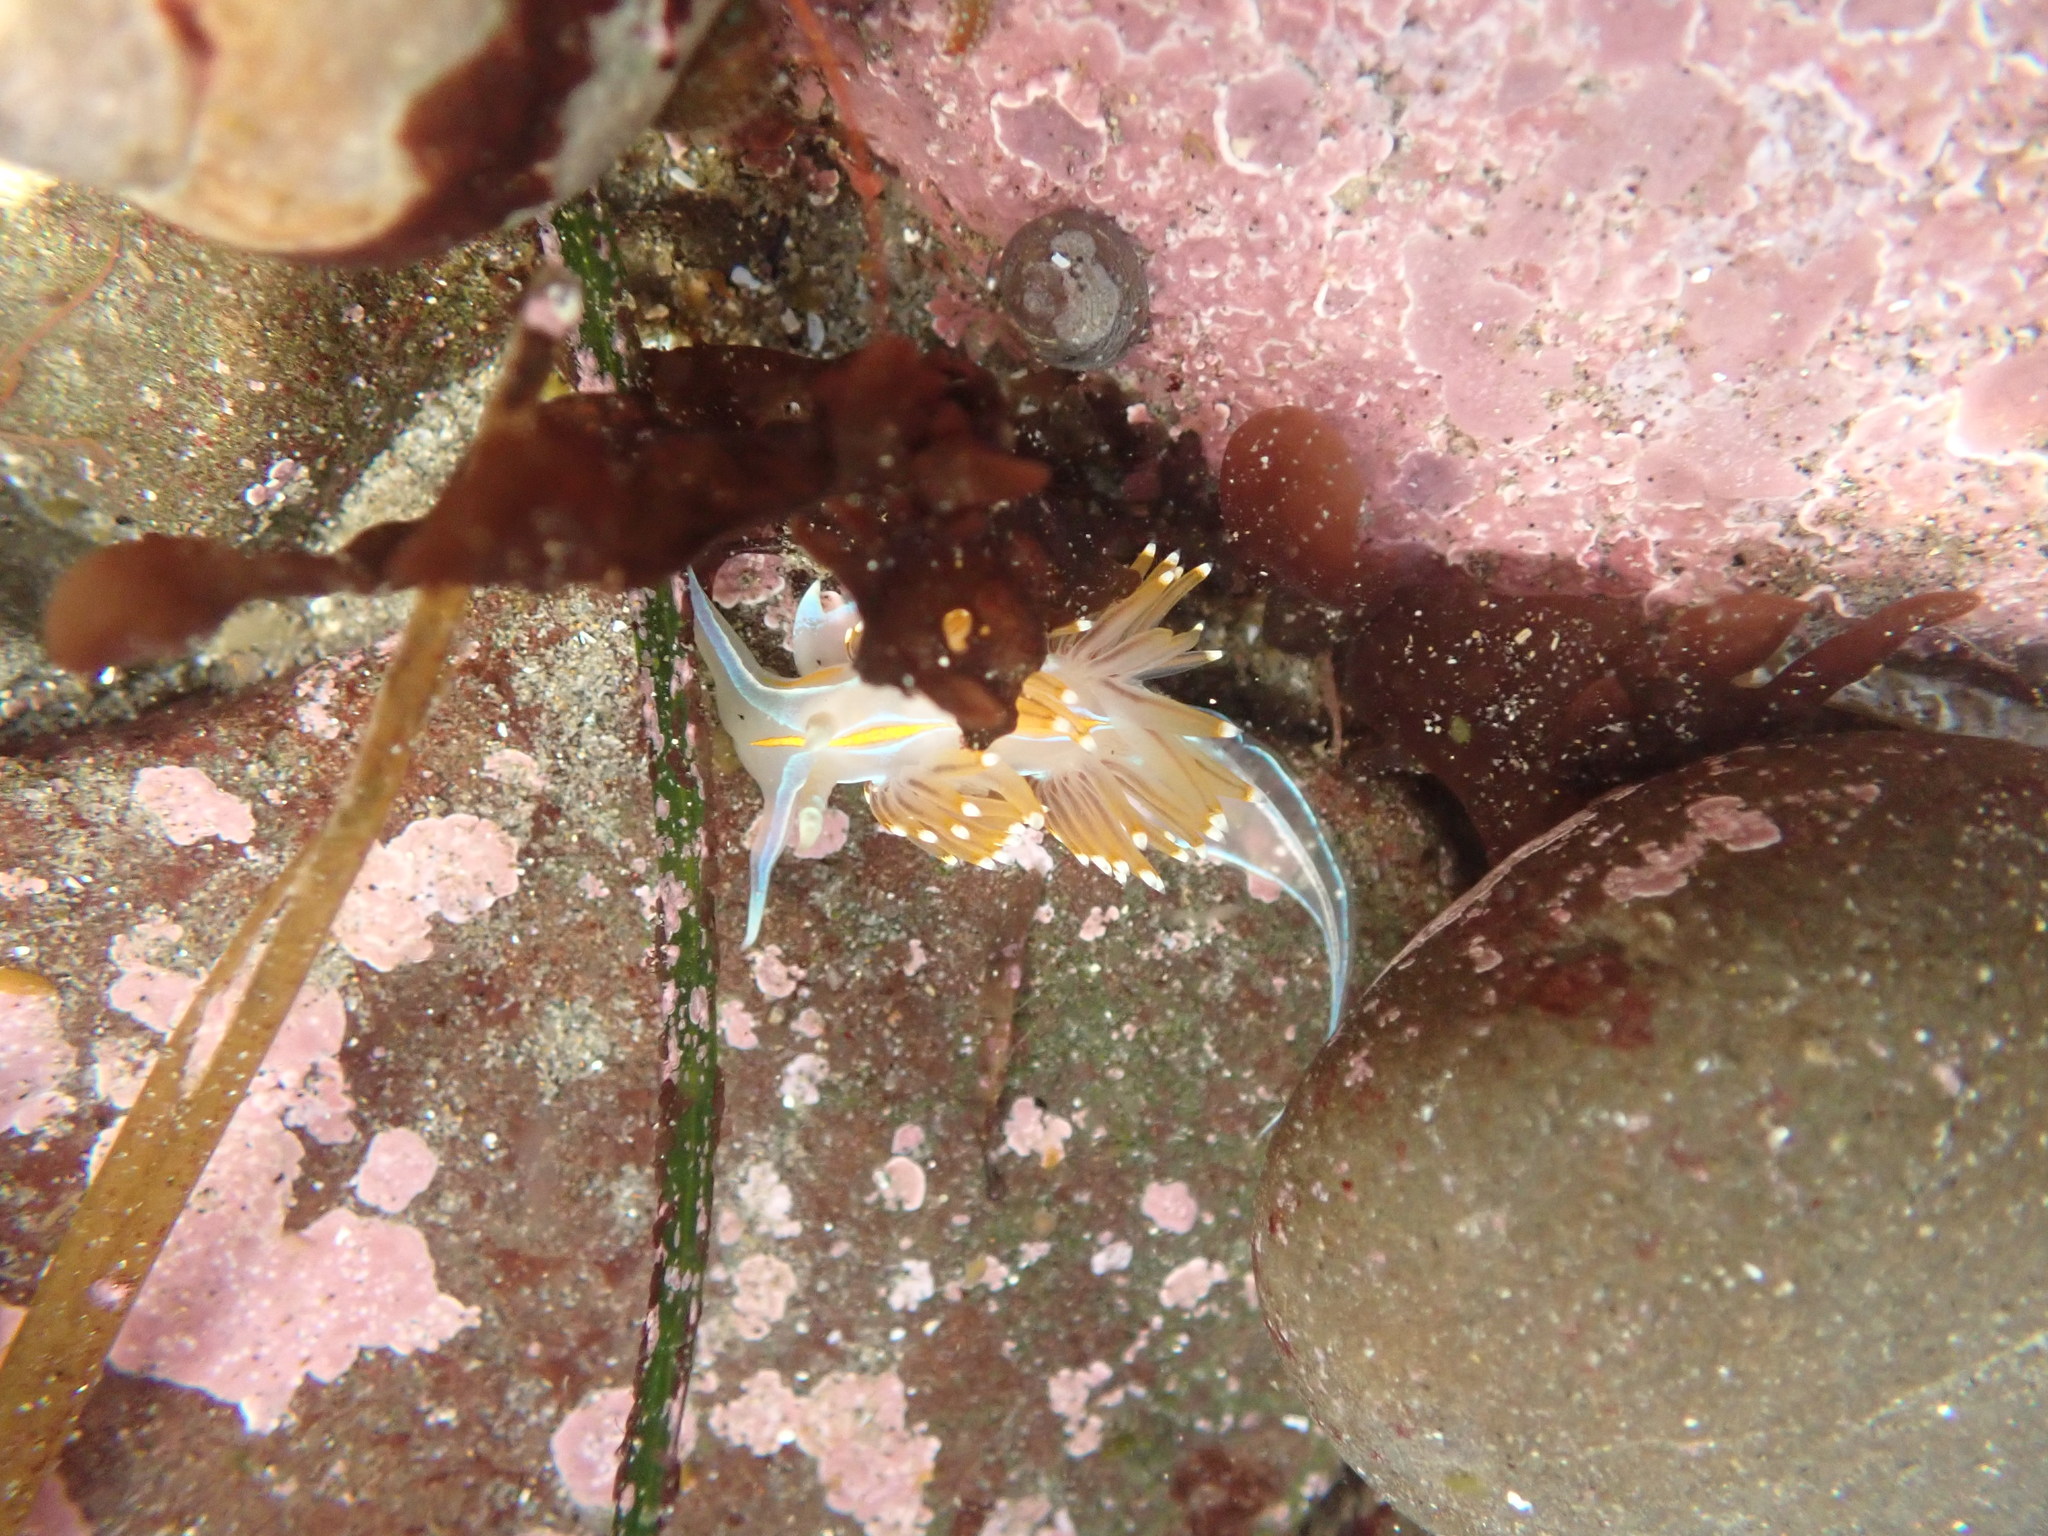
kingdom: Animalia
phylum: Mollusca
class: Gastropoda
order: Nudibranchia
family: Myrrhinidae
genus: Hermissenda
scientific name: Hermissenda opalescens
